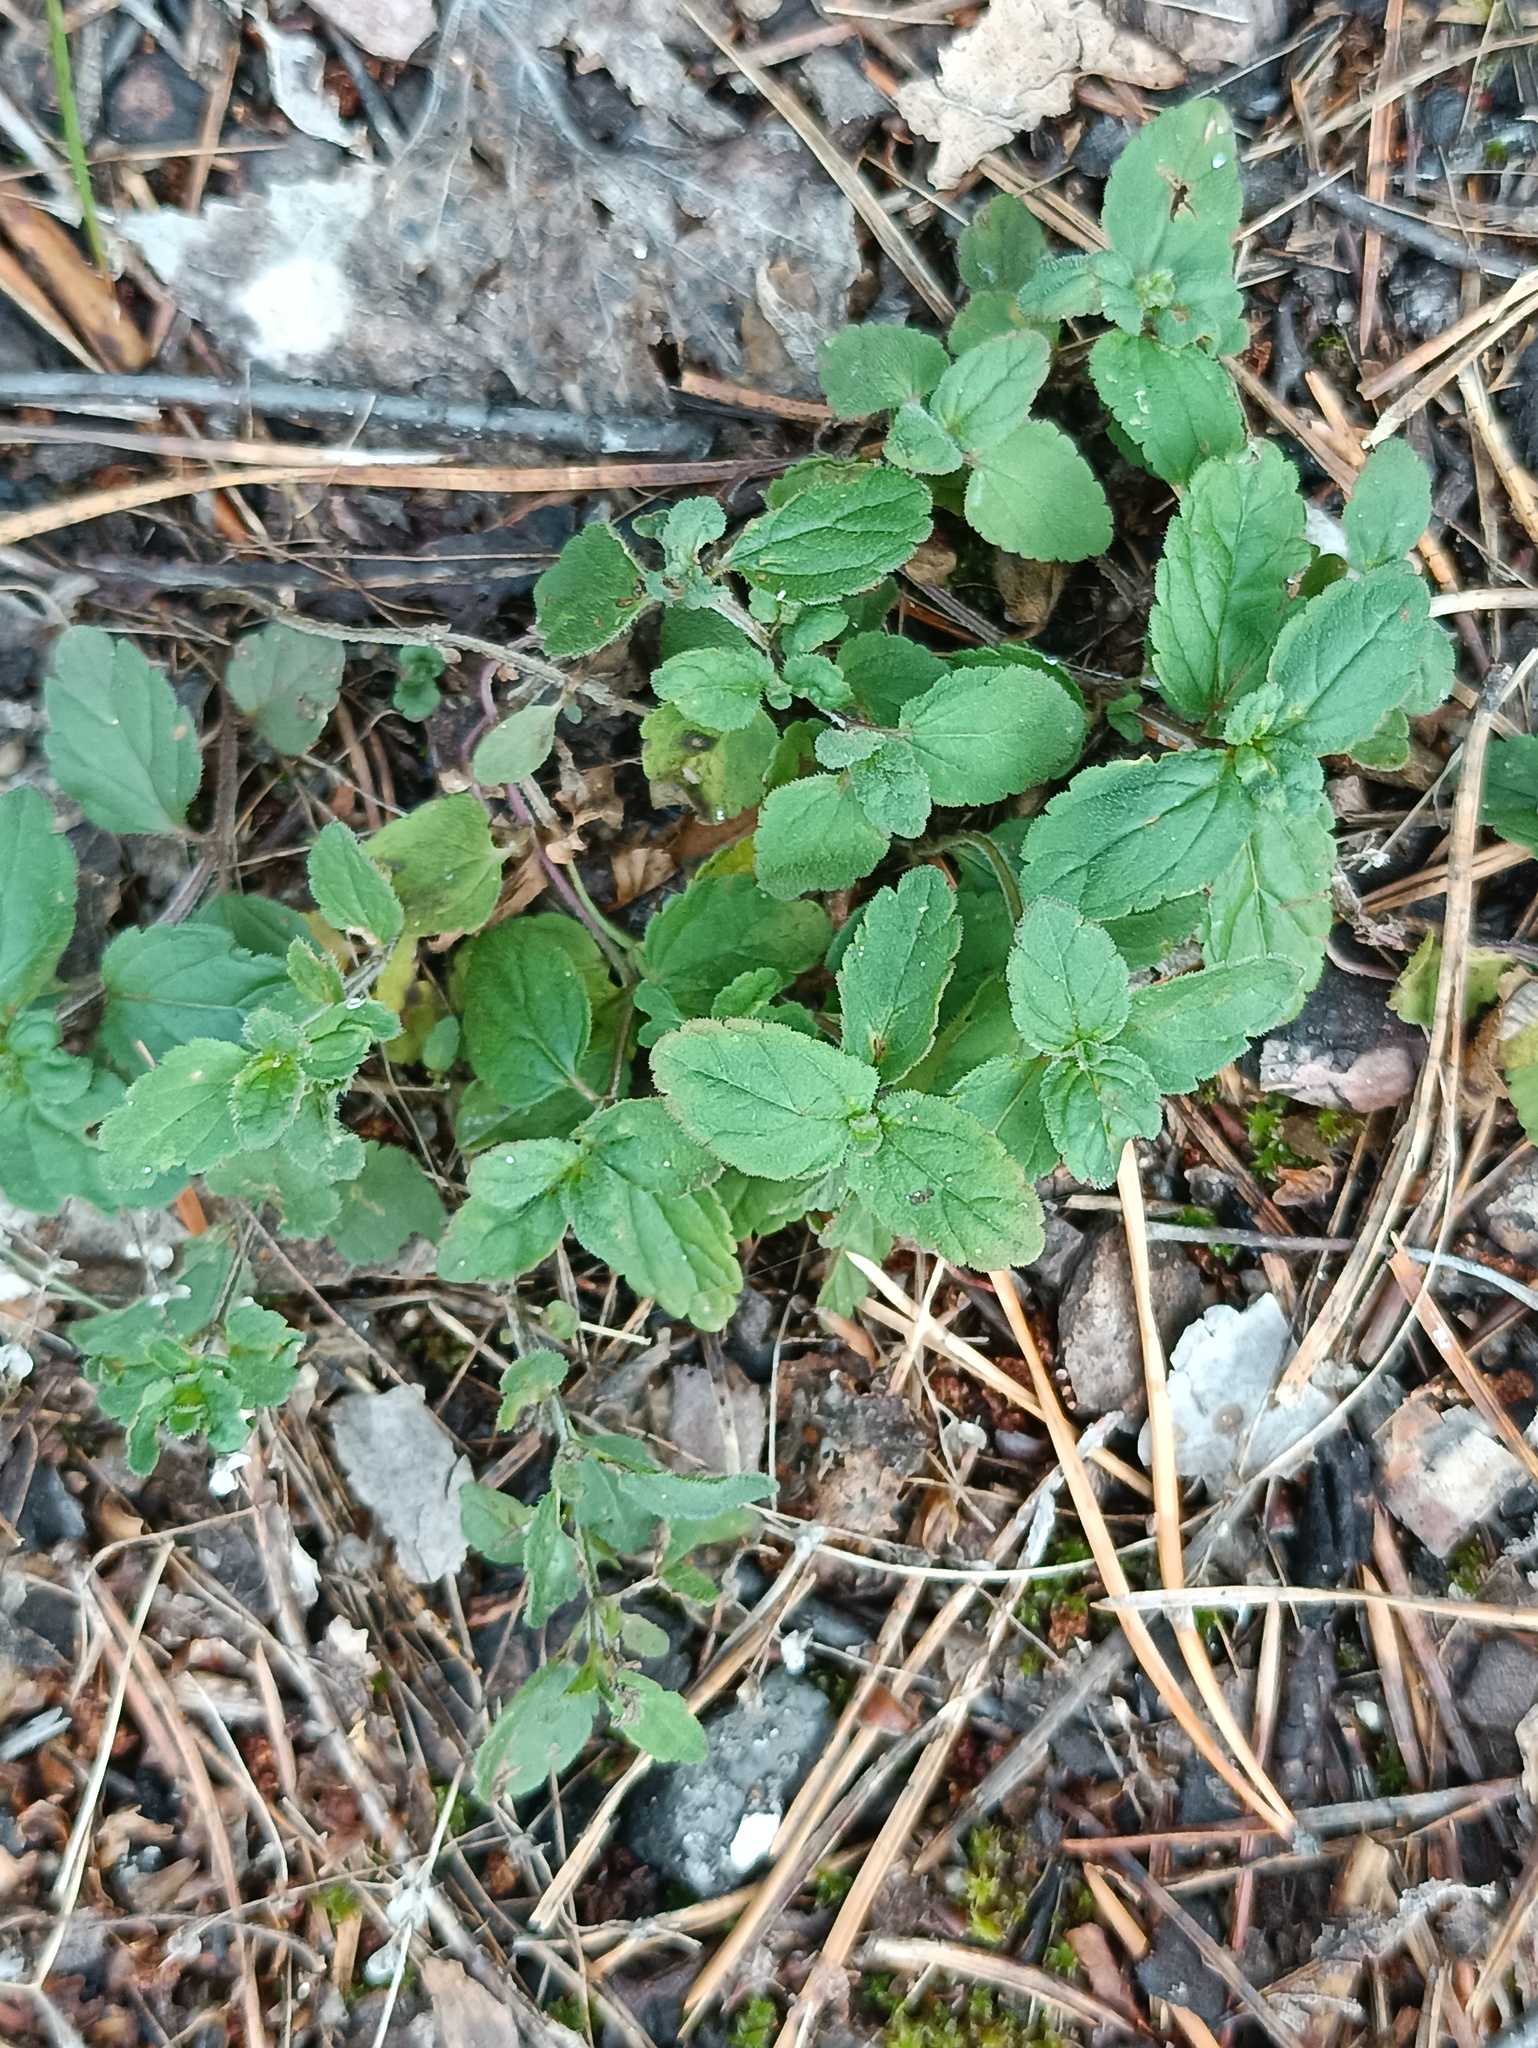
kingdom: Plantae
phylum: Tracheophyta
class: Magnoliopsida
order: Lamiales
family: Plantaginaceae
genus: Veronica
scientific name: Veronica chamaedrys
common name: Germander speedwell
